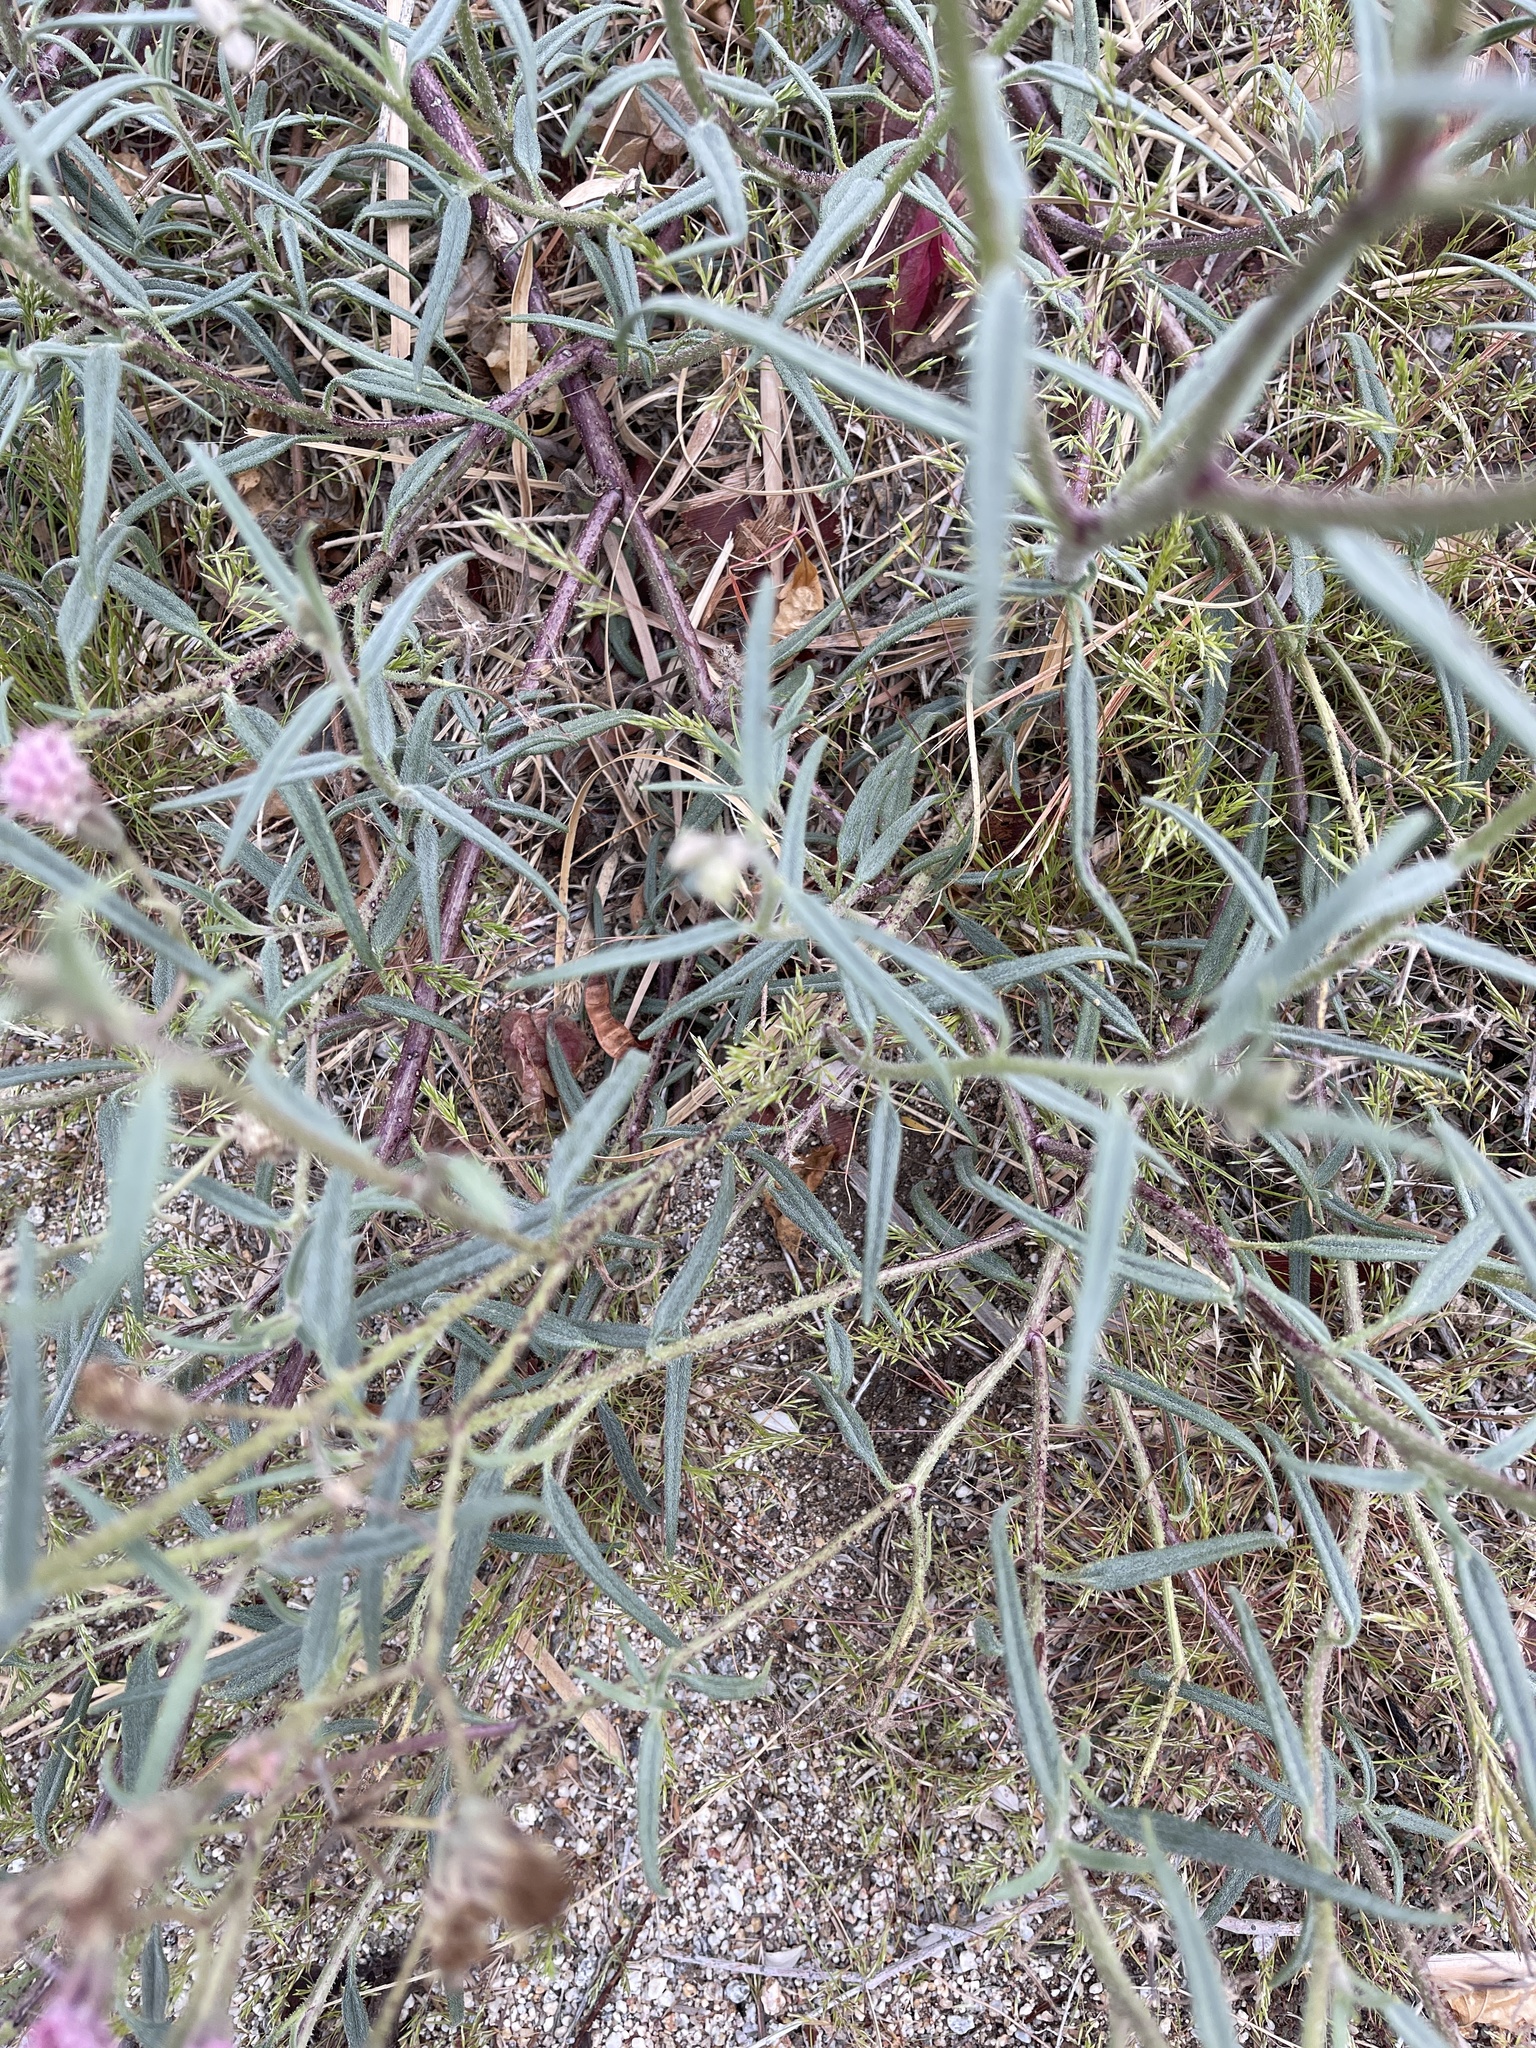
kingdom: Plantae
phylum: Tracheophyta
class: Magnoliopsida
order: Asterales
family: Asteraceae
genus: Palafoxia
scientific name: Palafoxia arida
